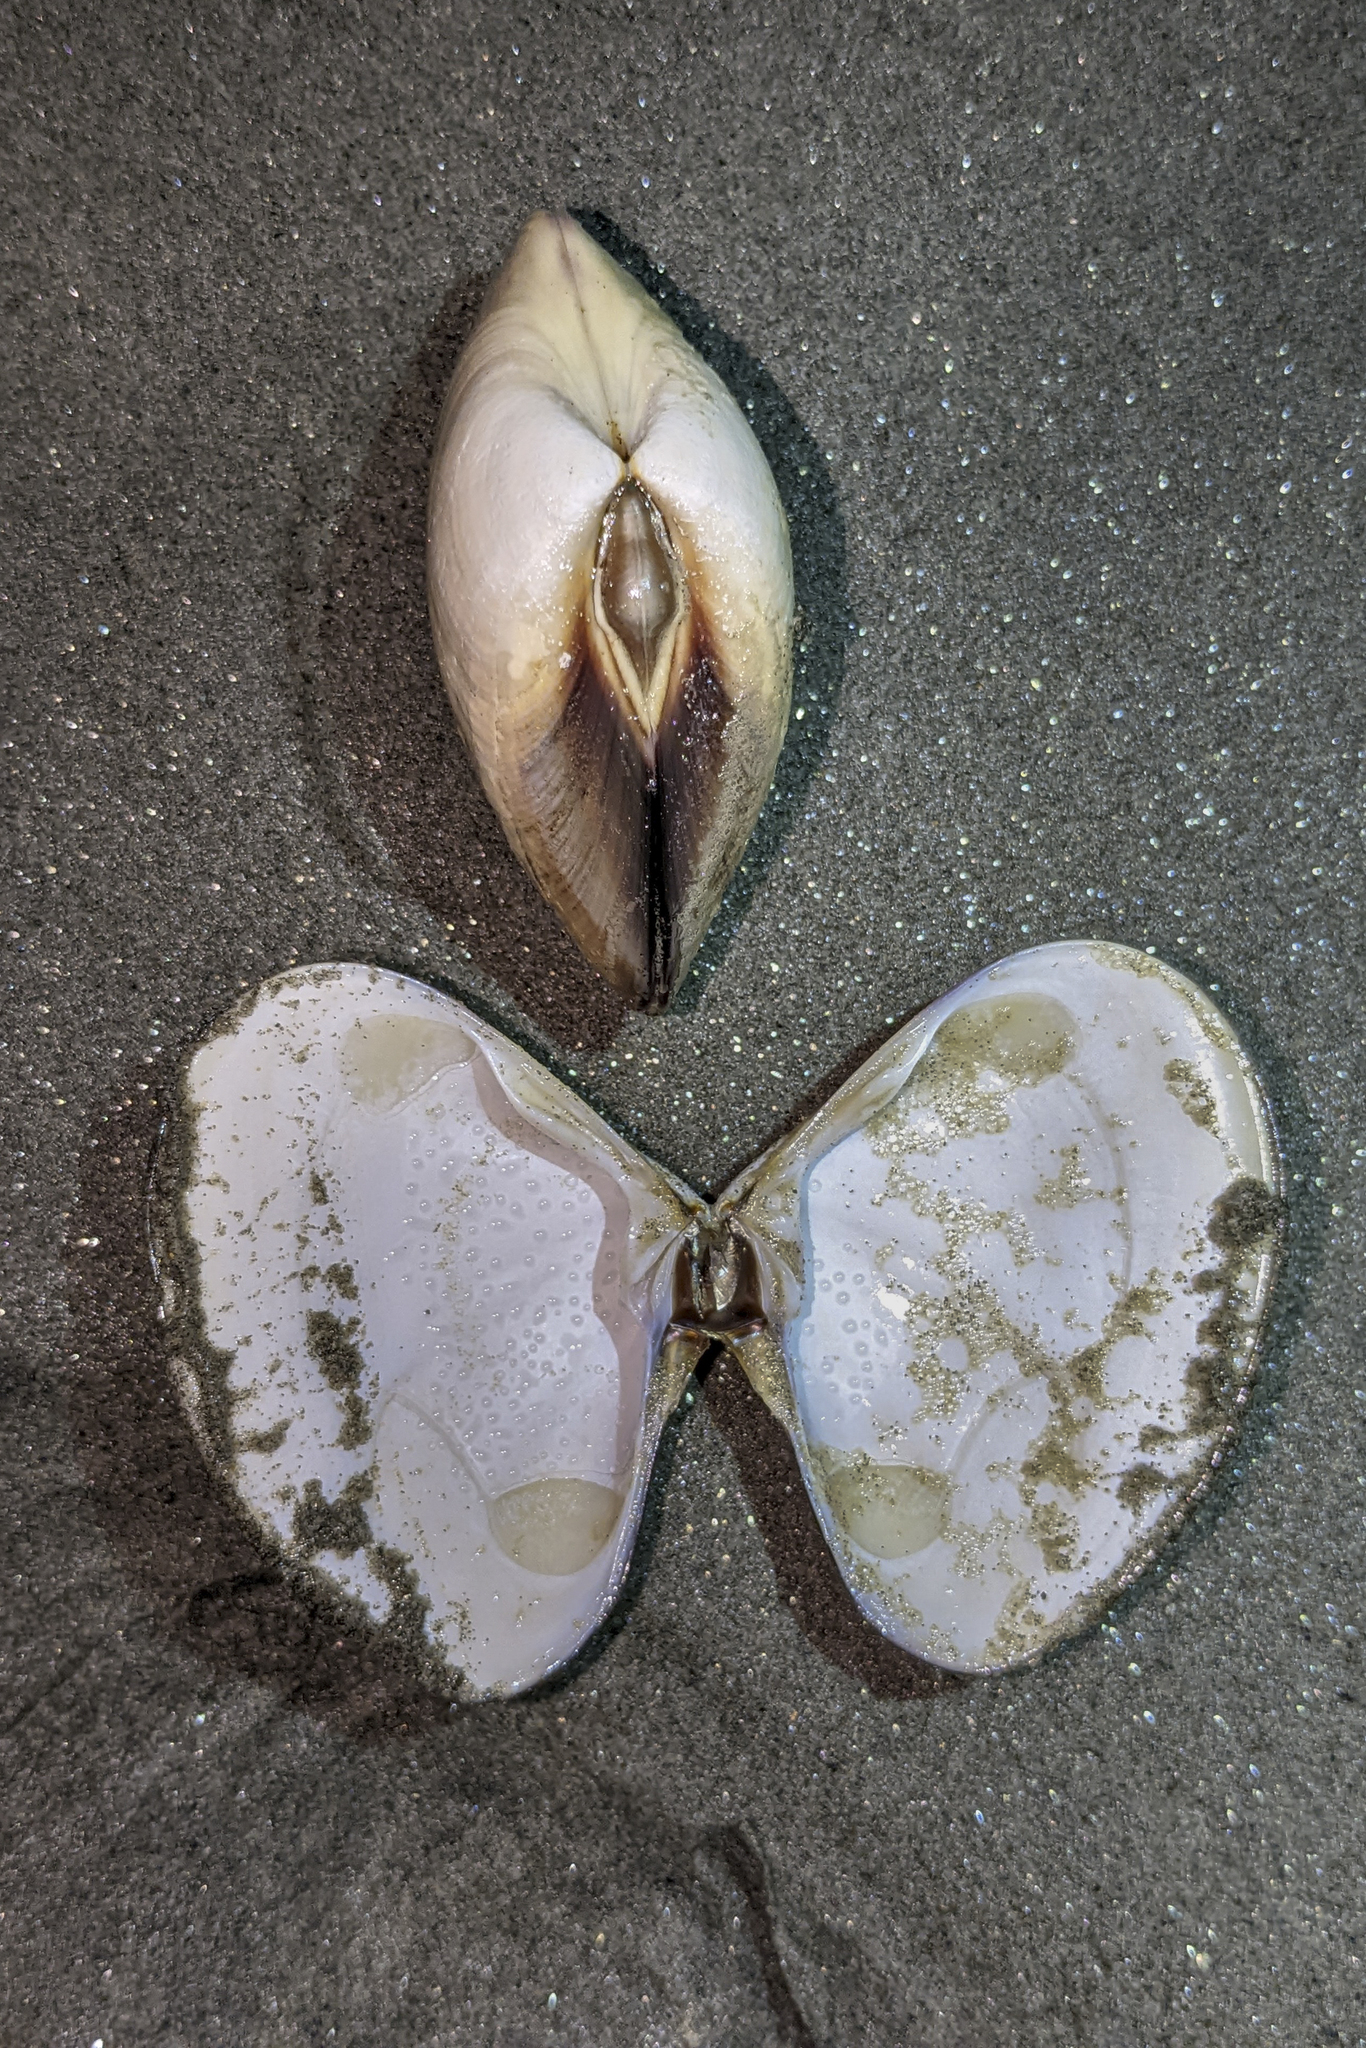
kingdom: Animalia
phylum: Mollusca
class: Bivalvia
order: Venerida
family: Veneridae
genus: Tivela
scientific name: Tivela stultorum
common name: Pismo clam
